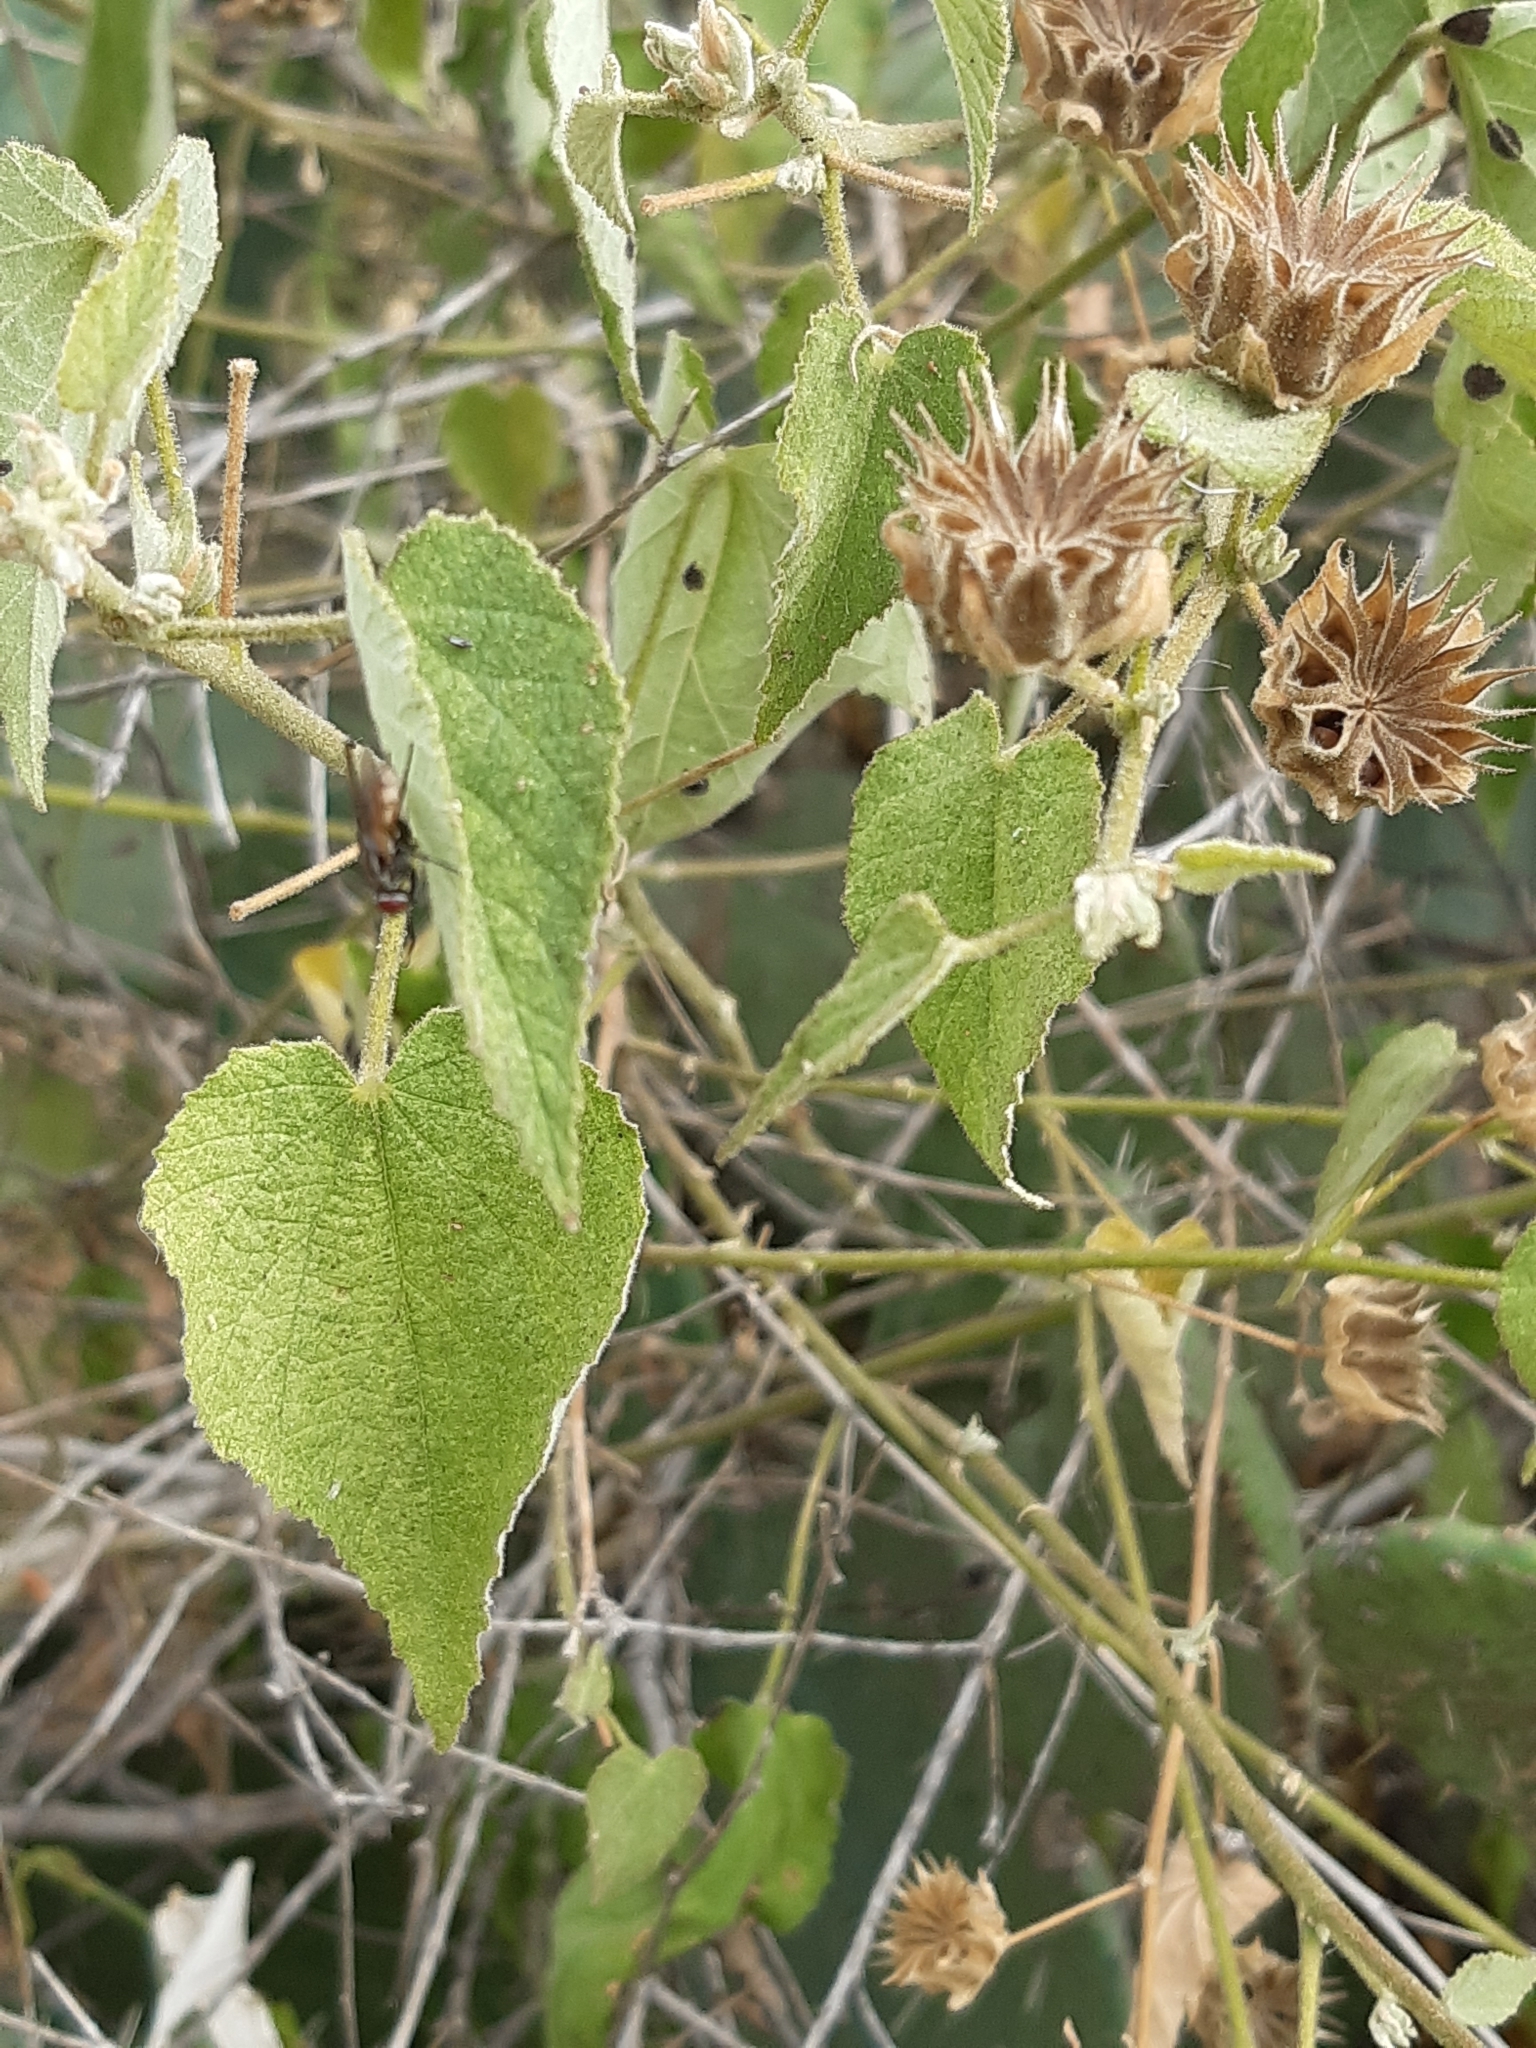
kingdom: Plantae
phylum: Tracheophyta
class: Magnoliopsida
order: Malvales
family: Malvaceae
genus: Abutilon
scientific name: Abutilon dugesii
